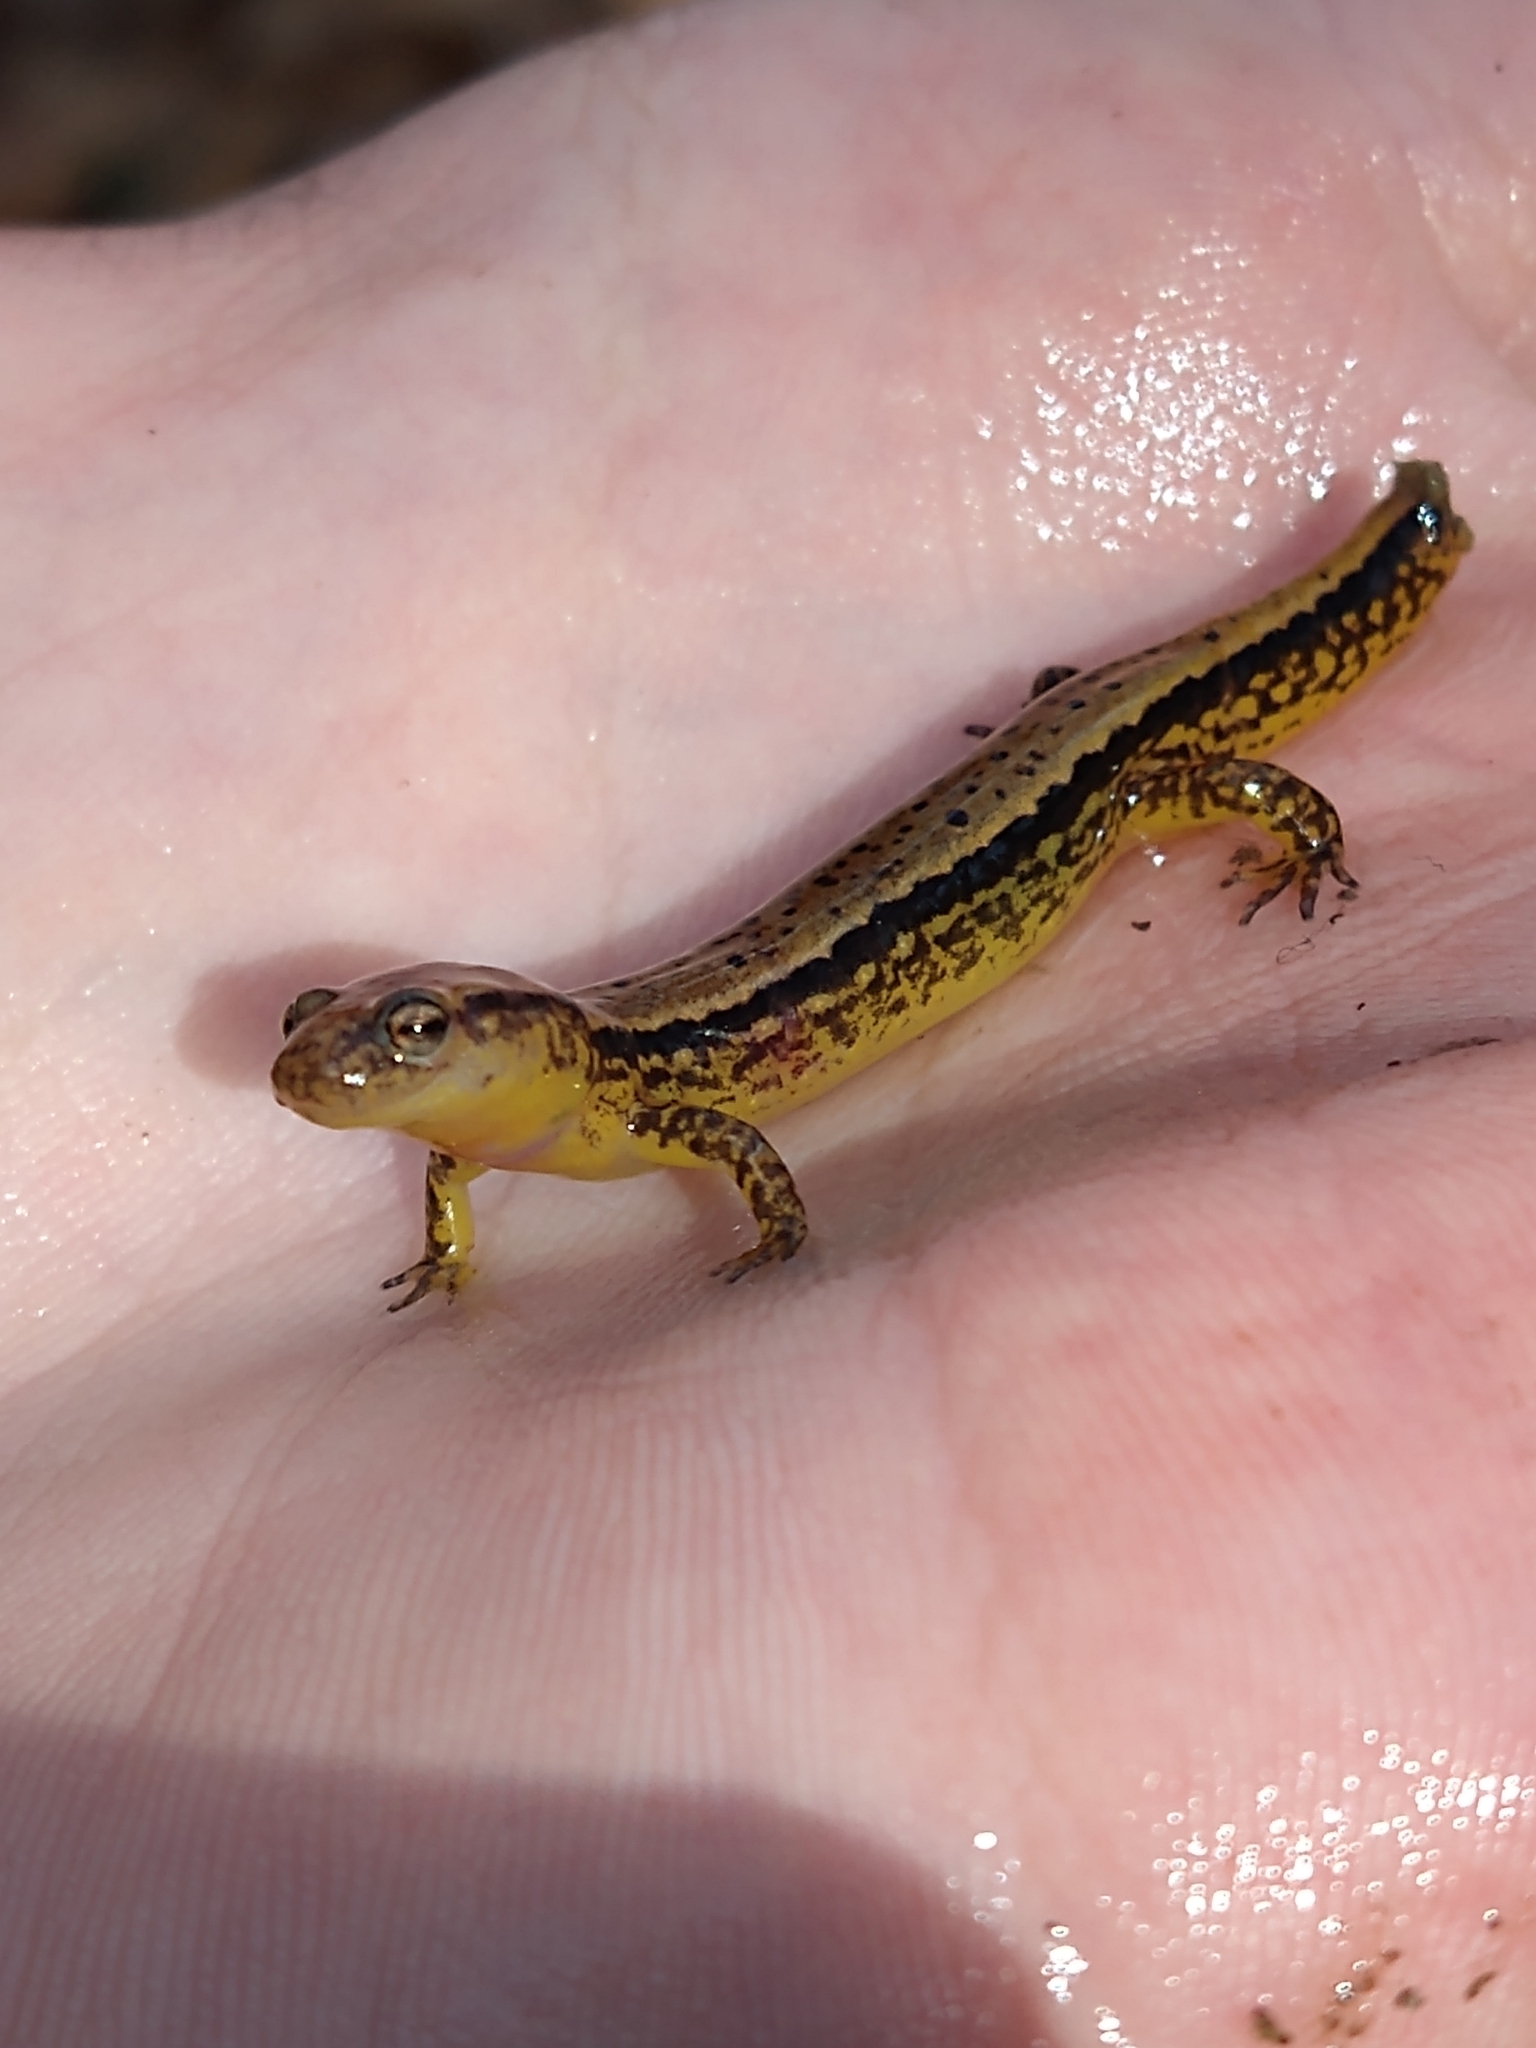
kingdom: Animalia
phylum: Chordata
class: Amphibia
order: Caudata
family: Plethodontidae
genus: Eurycea
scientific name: Eurycea cirrigera
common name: Southern two-lined salamander
